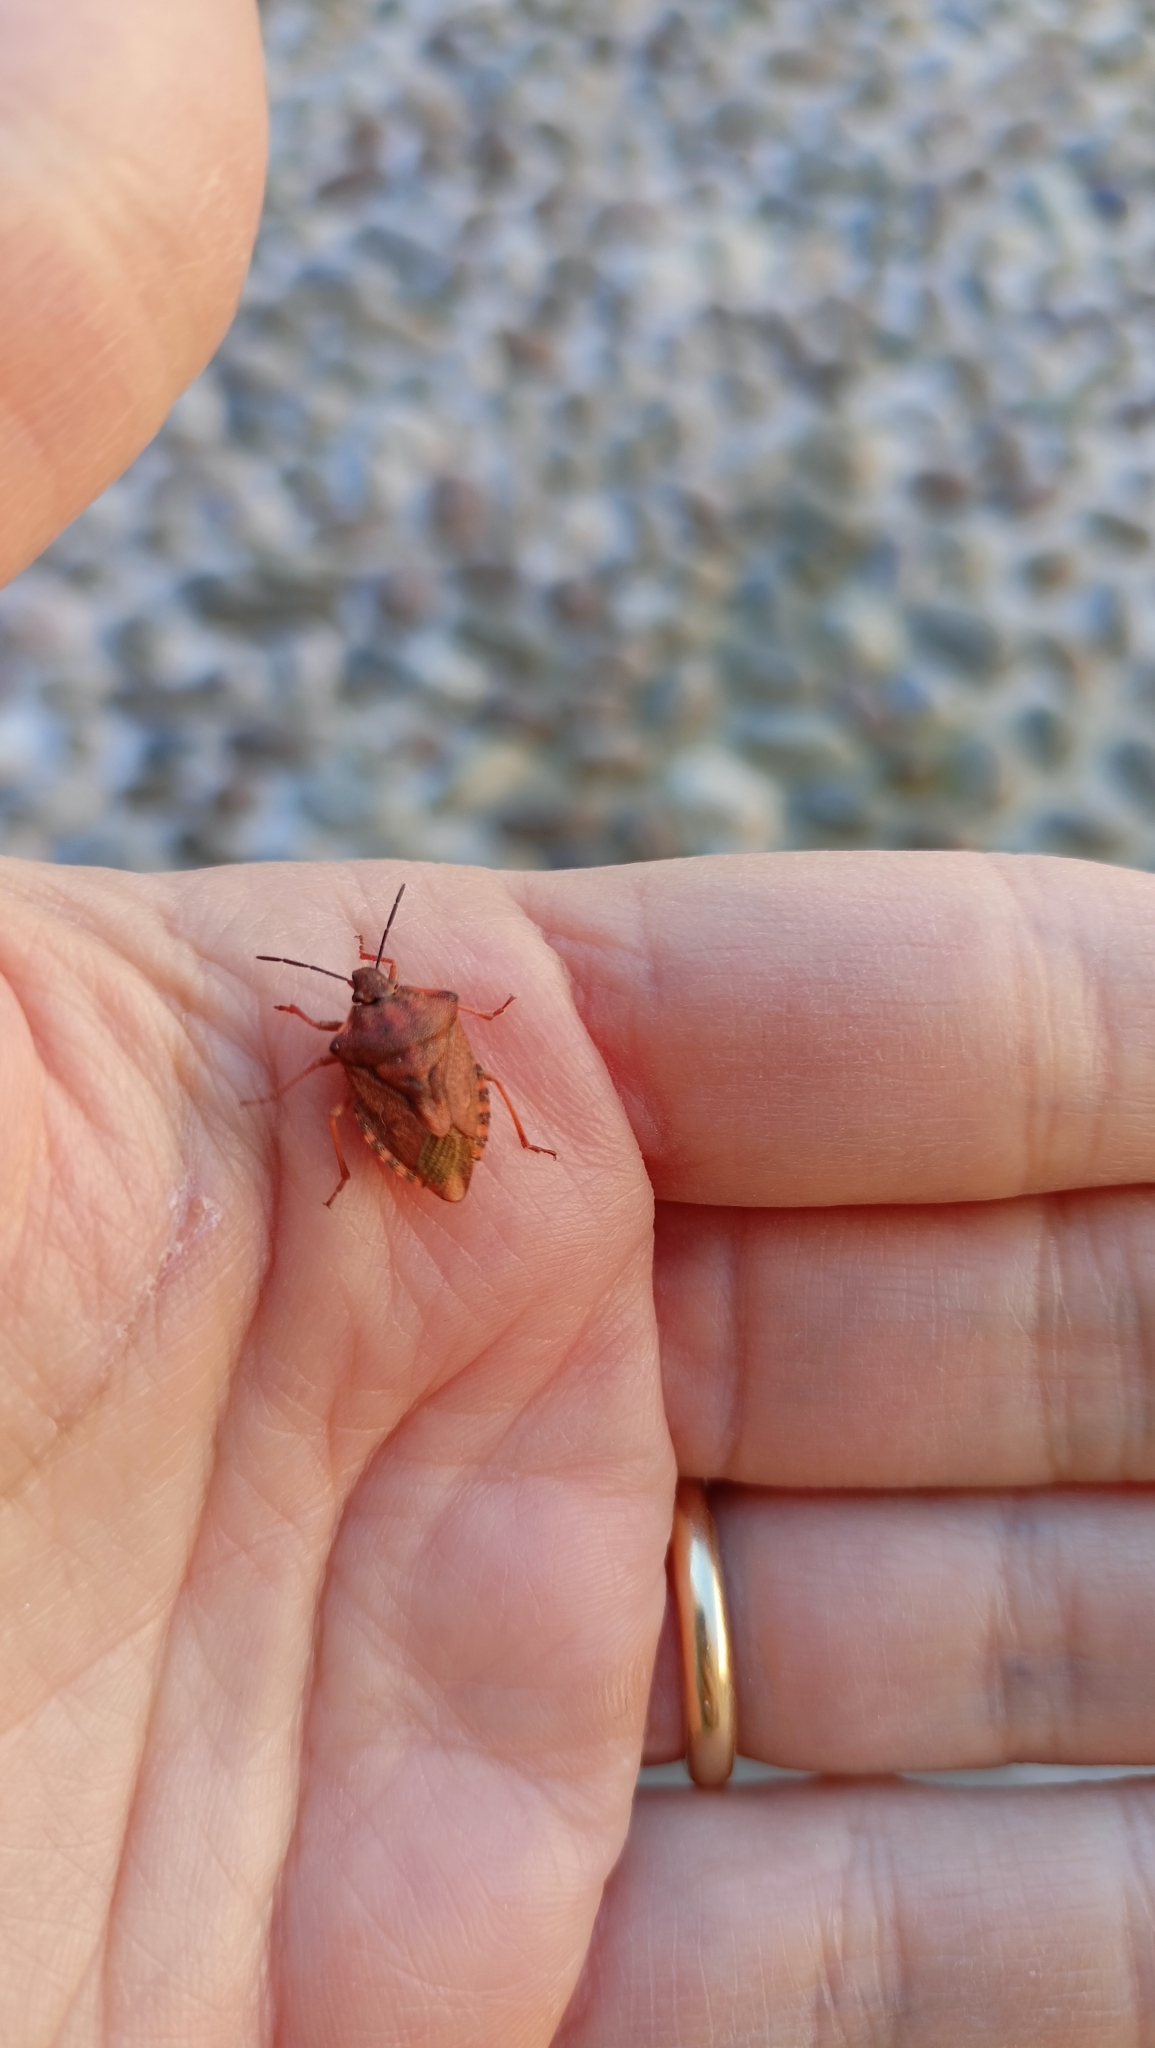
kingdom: Animalia
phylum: Arthropoda
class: Insecta
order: Hemiptera
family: Pentatomidae
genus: Carpocoris
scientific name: Carpocoris purpureipennis
